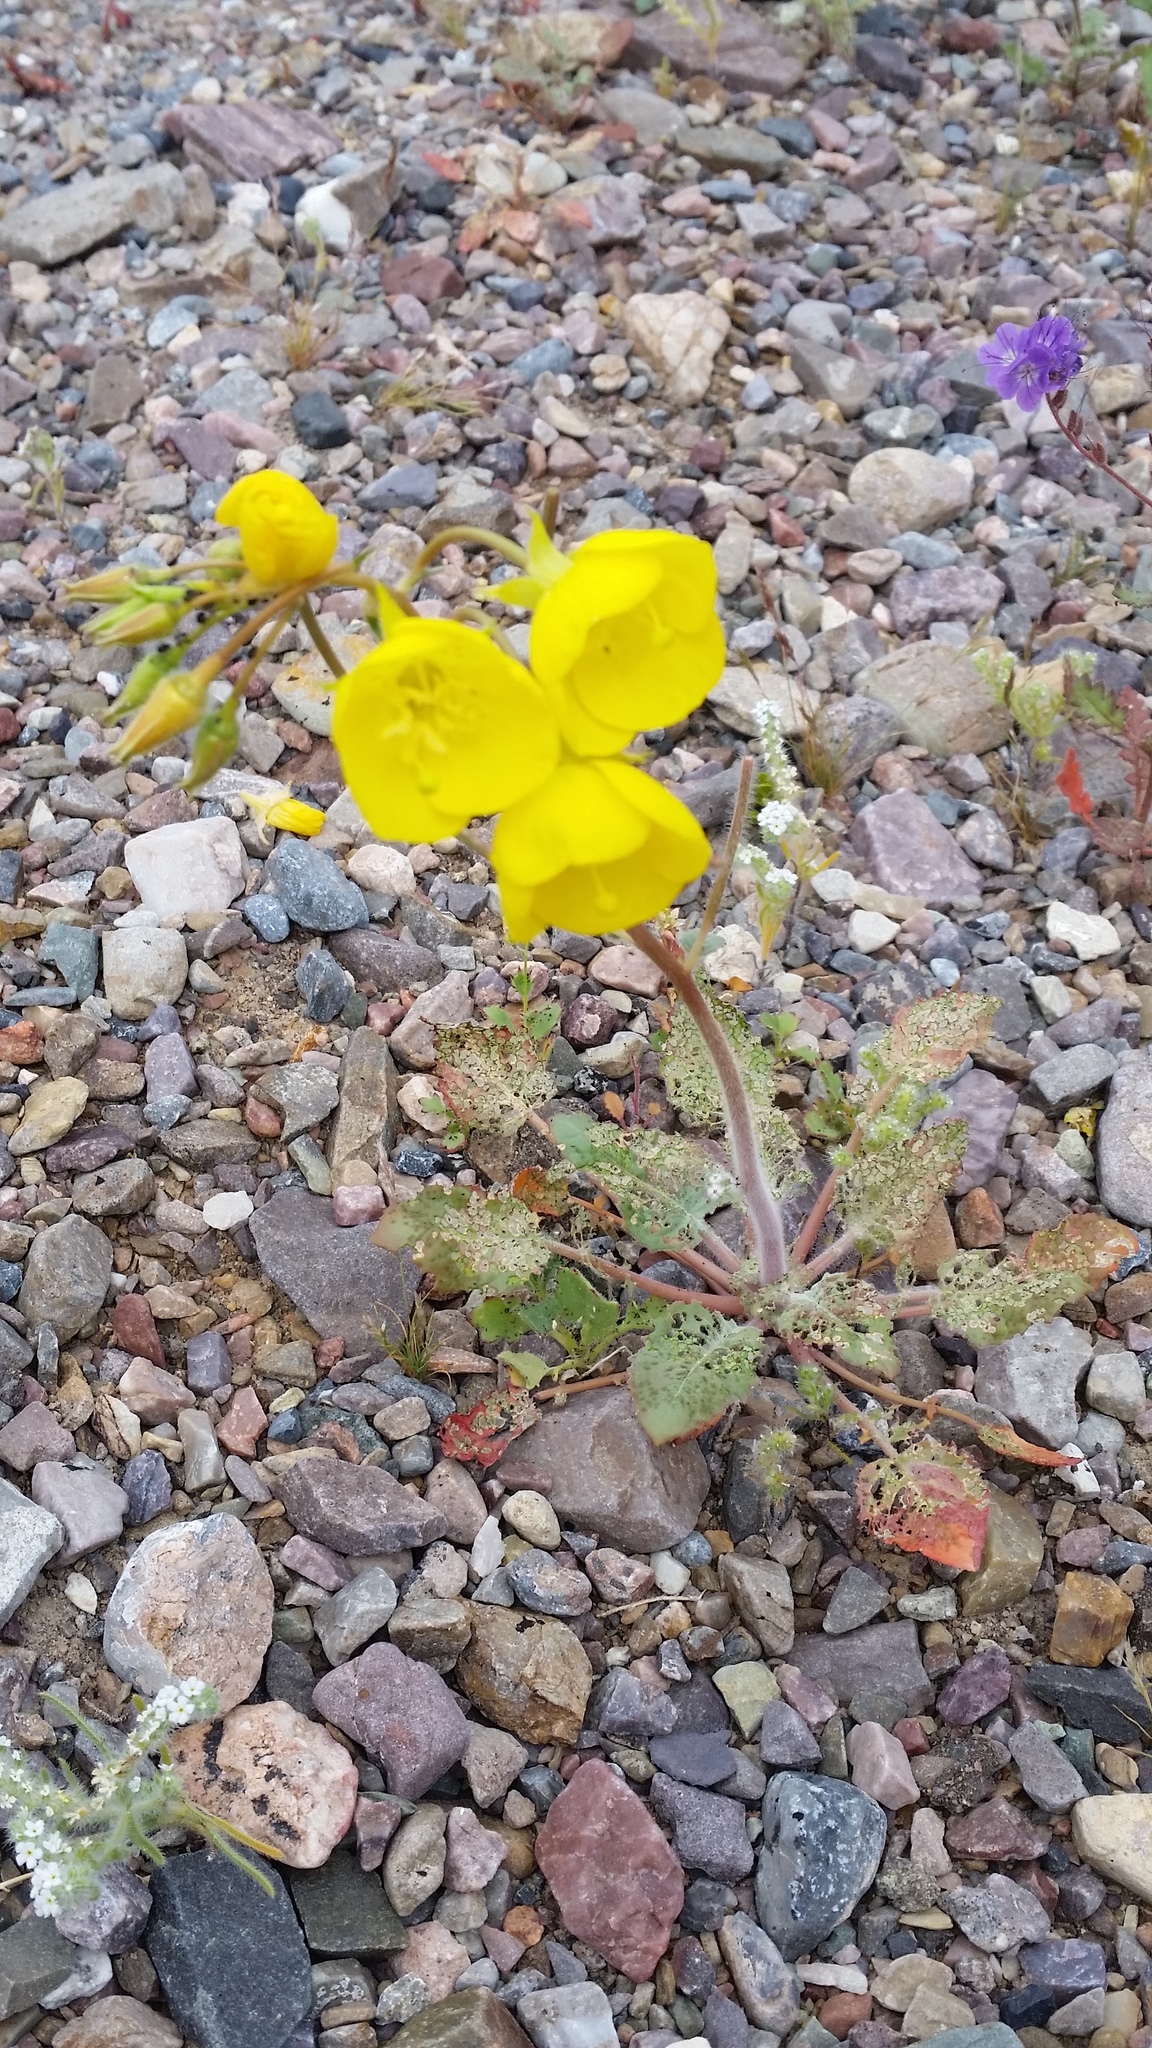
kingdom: Plantae
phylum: Tracheophyta
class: Magnoliopsida
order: Myrtales
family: Onagraceae
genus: Chylismia
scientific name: Chylismia brevipes
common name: Yellow cups
